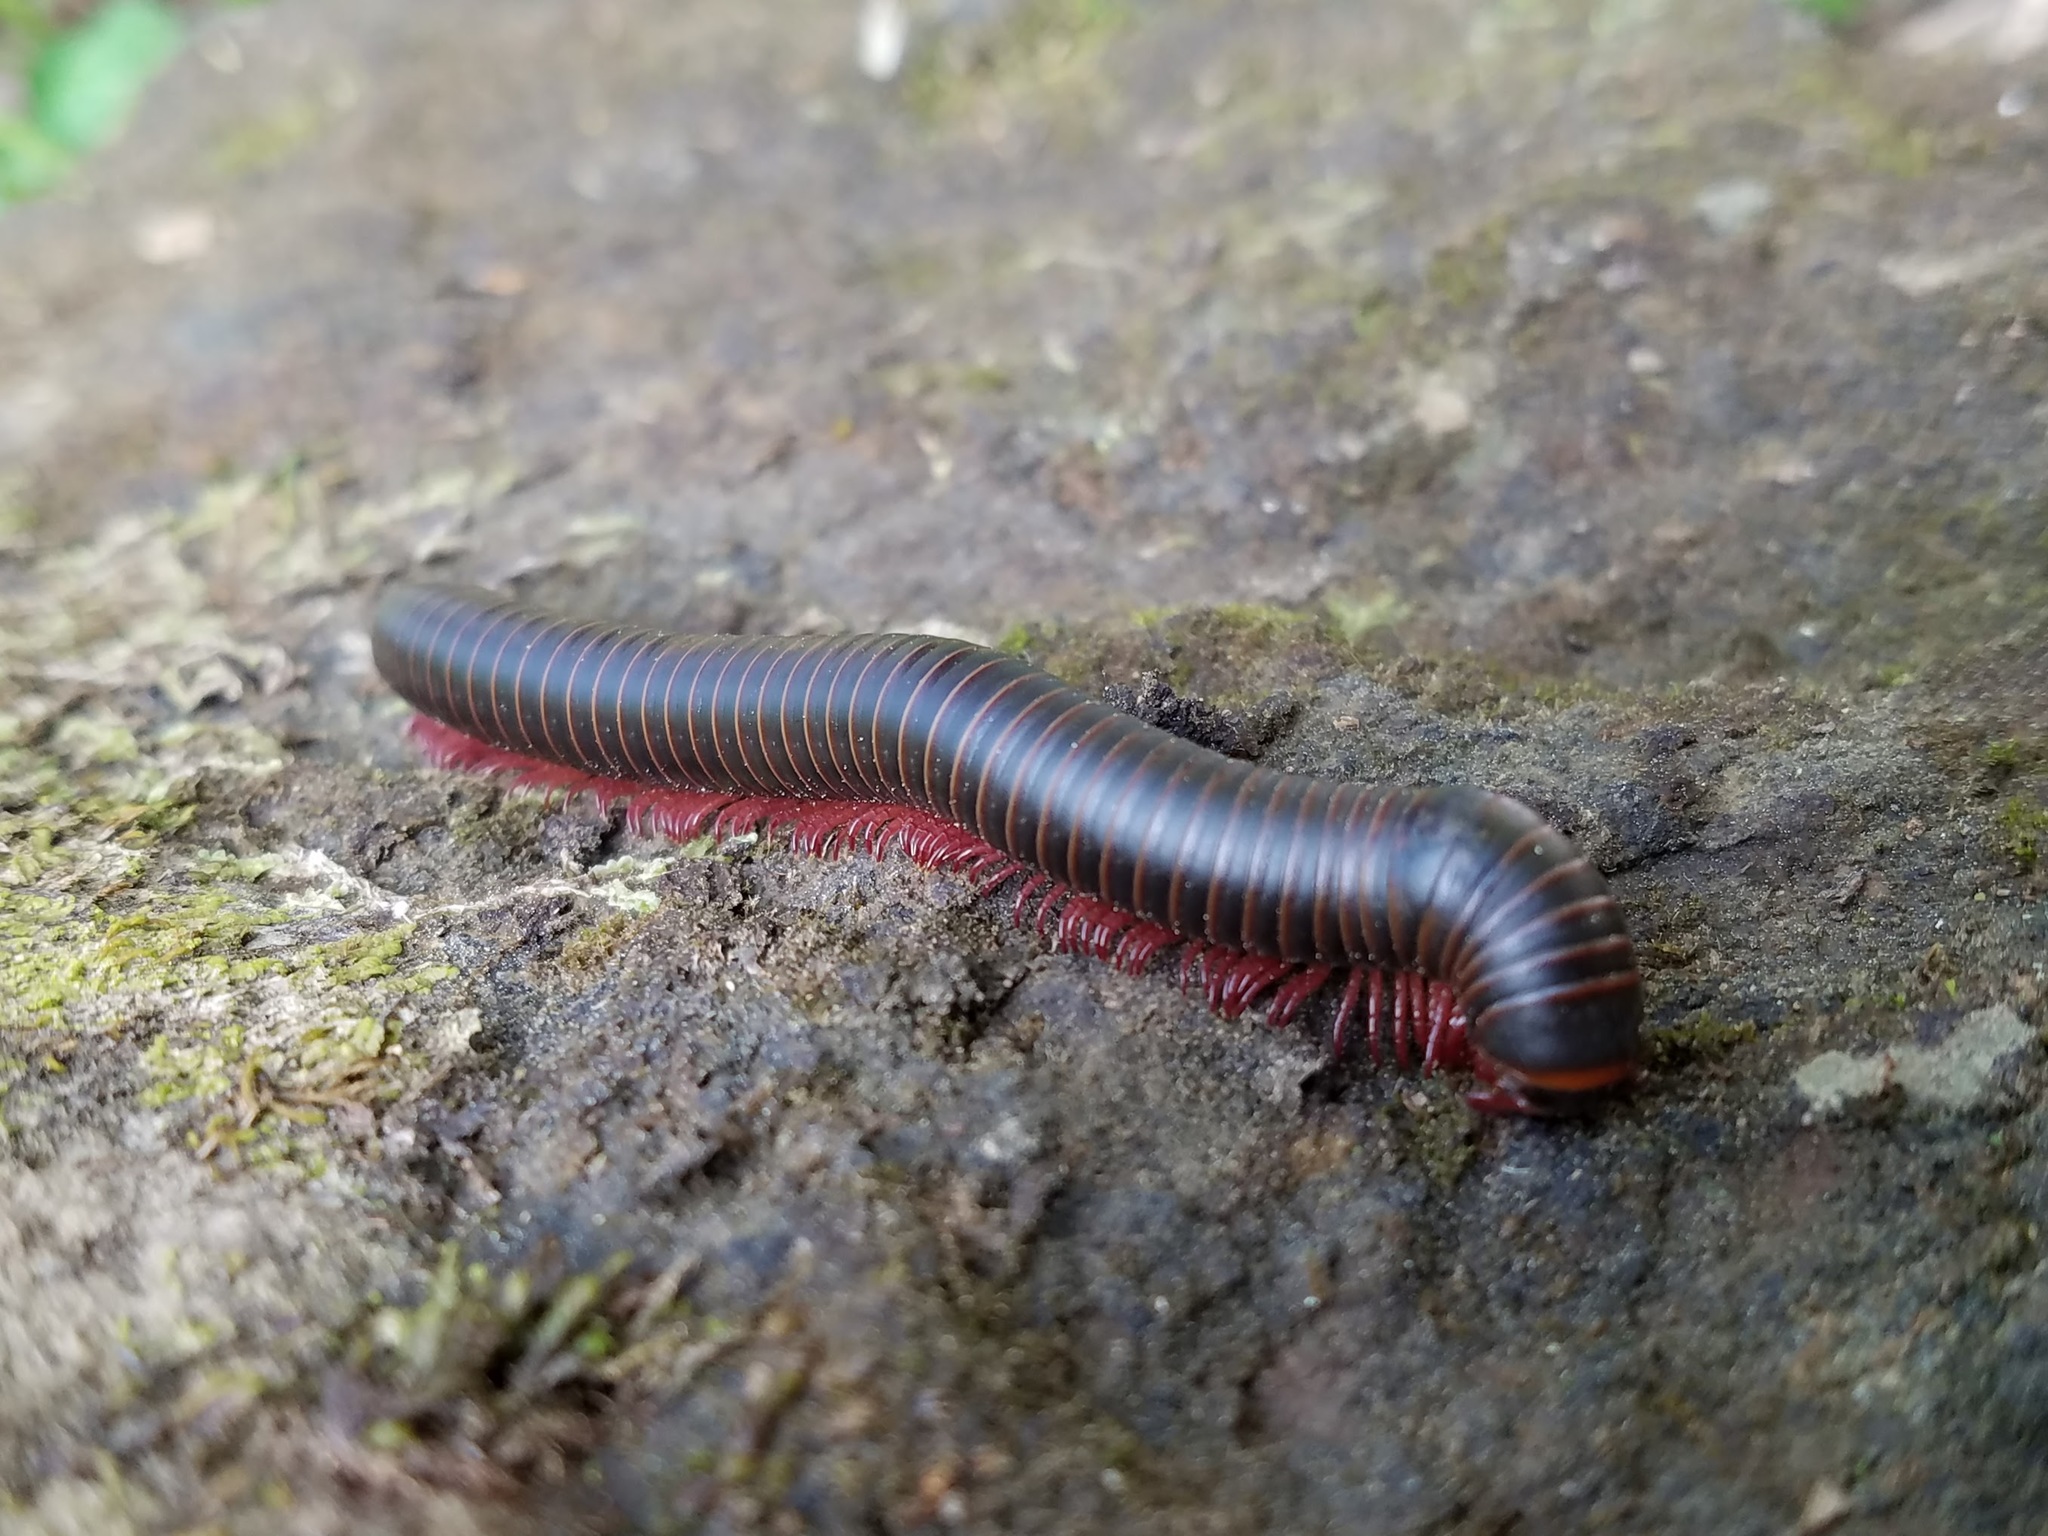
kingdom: Animalia
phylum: Arthropoda
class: Diplopoda
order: Spirobolida
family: Spirobolidae
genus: Narceus
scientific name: Narceus
